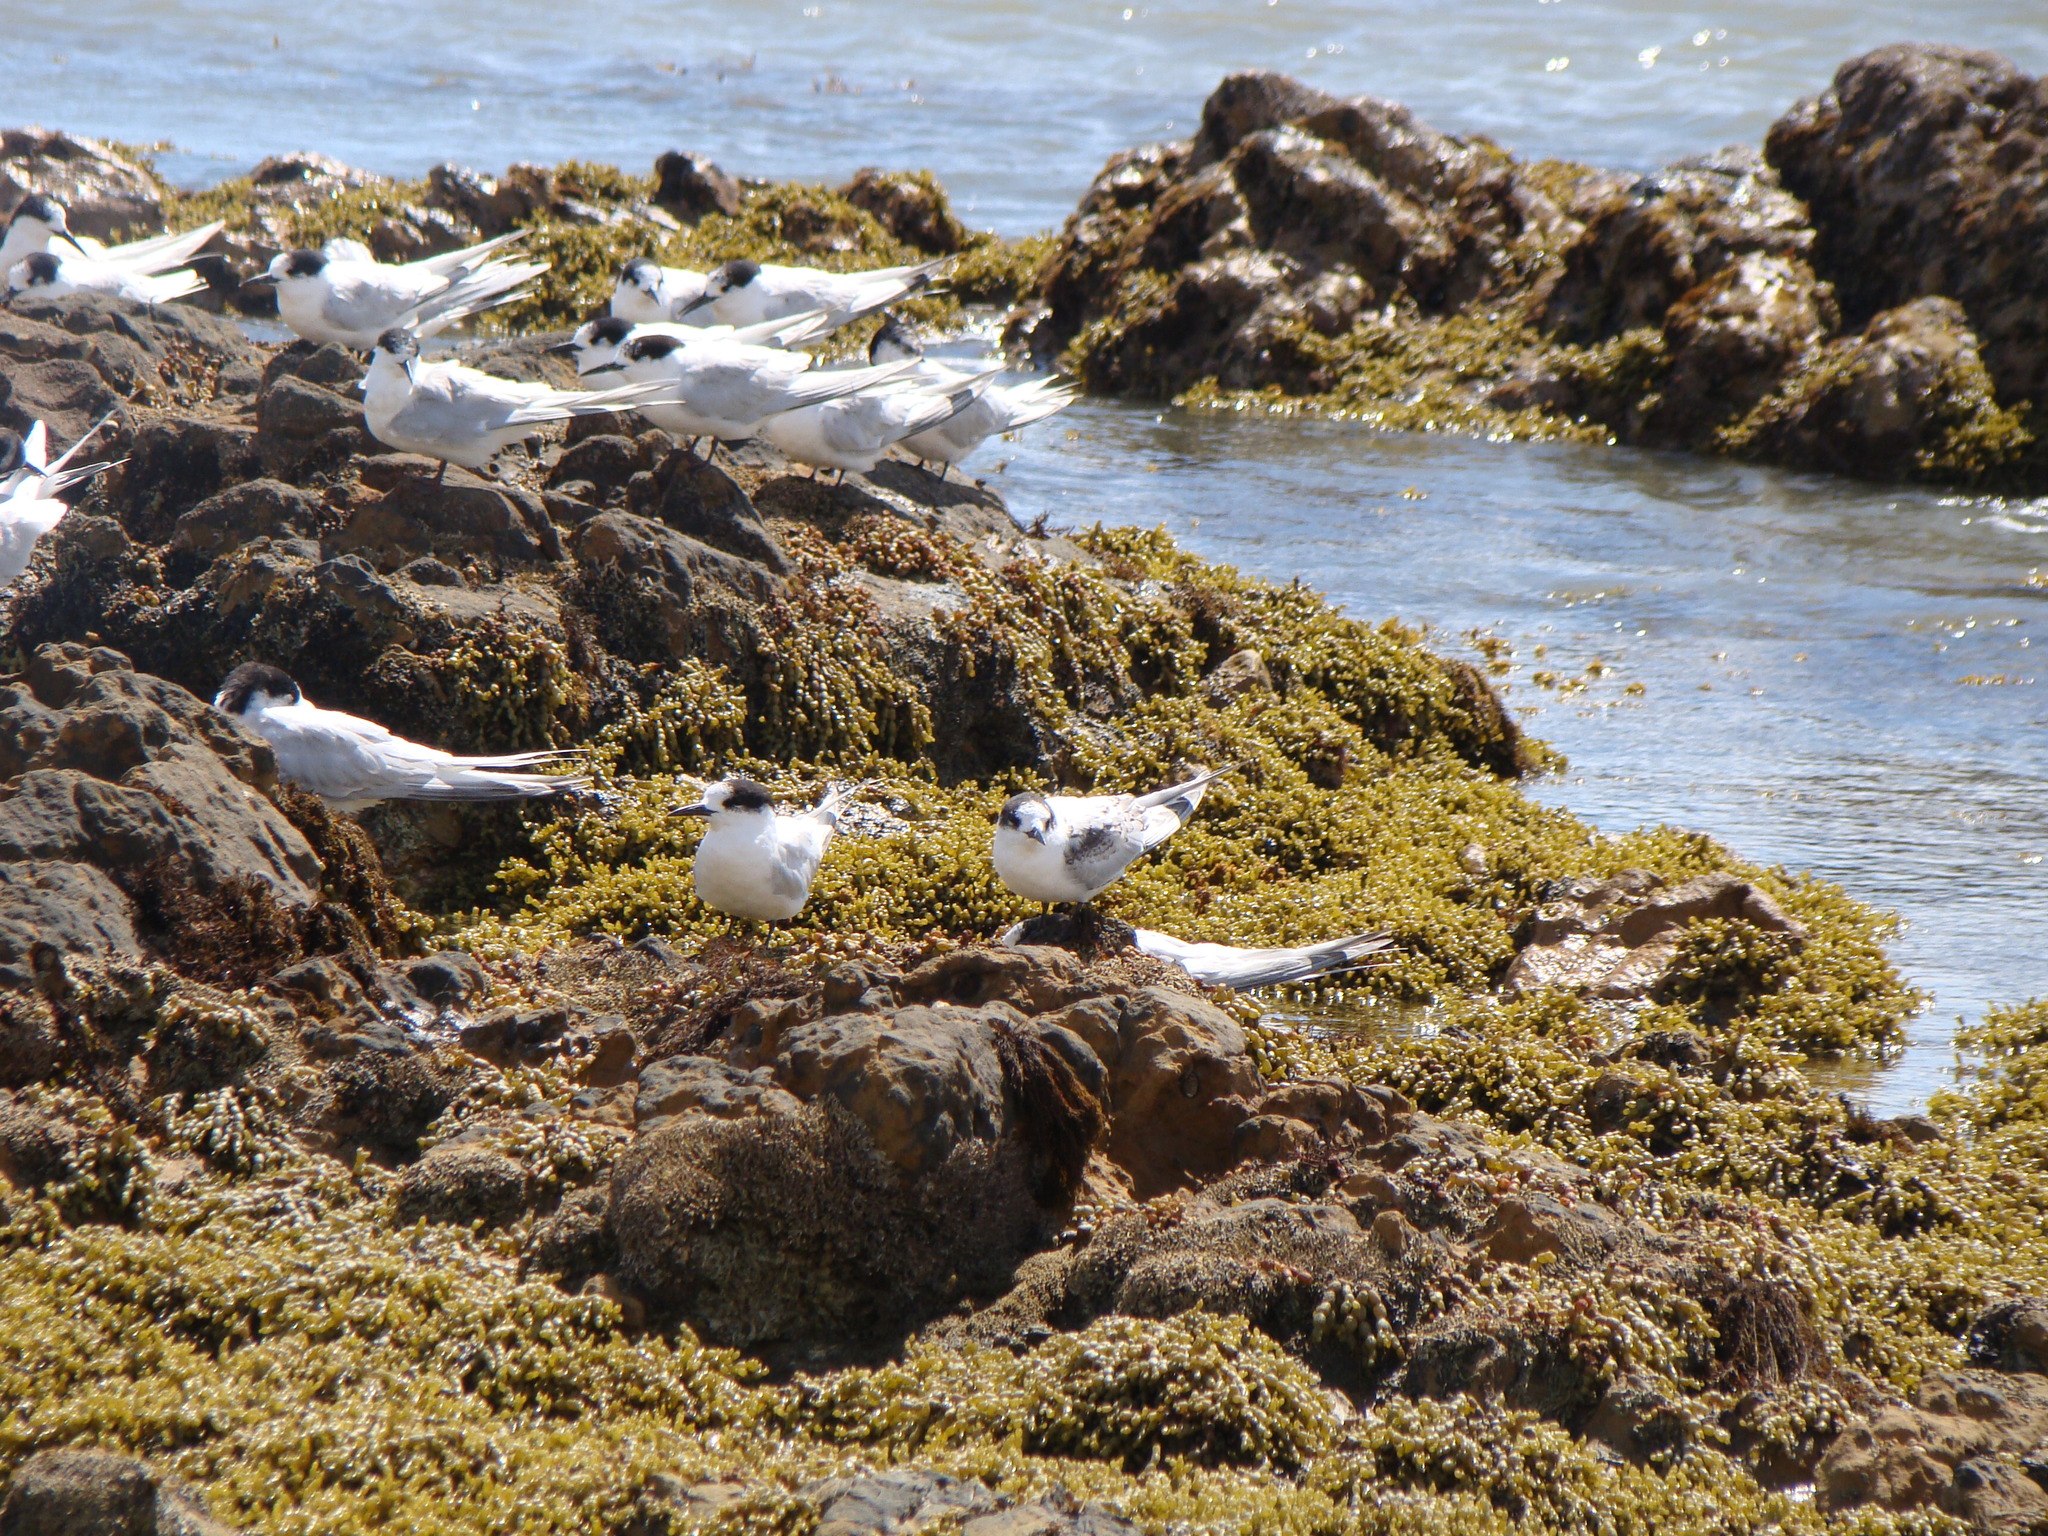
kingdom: Animalia
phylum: Chordata
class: Aves
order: Charadriiformes
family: Laridae
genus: Sterna
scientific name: Sterna striata
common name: White-fronted tern
